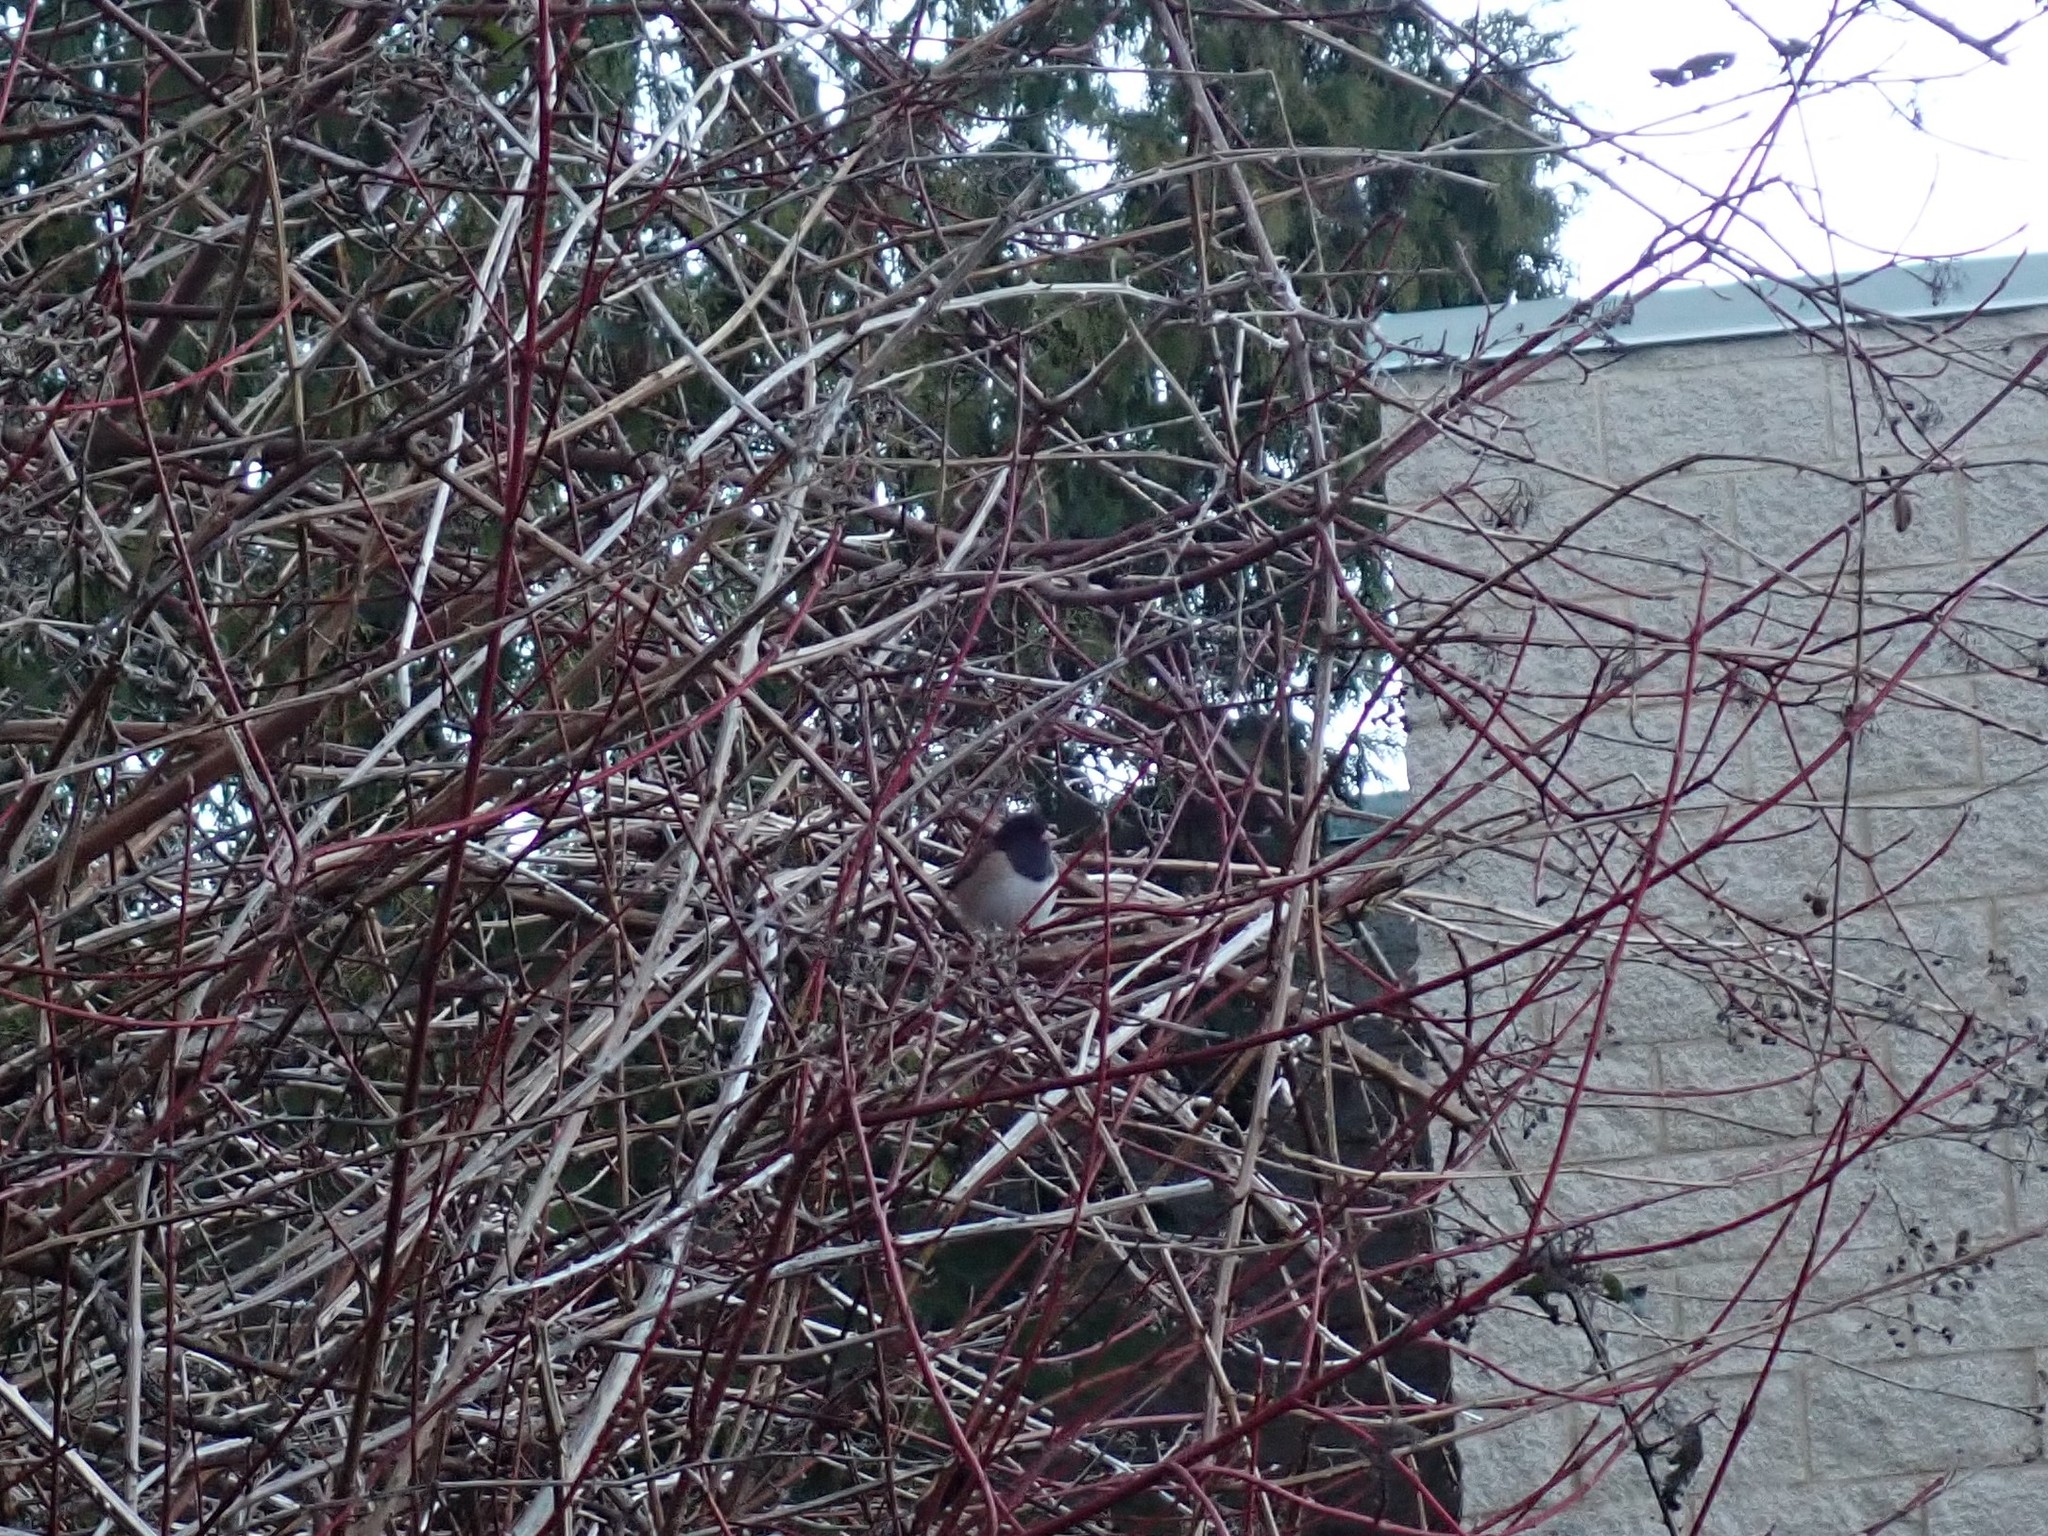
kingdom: Animalia
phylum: Chordata
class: Aves
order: Passeriformes
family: Passerellidae
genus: Junco
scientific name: Junco hyemalis
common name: Dark-eyed junco
